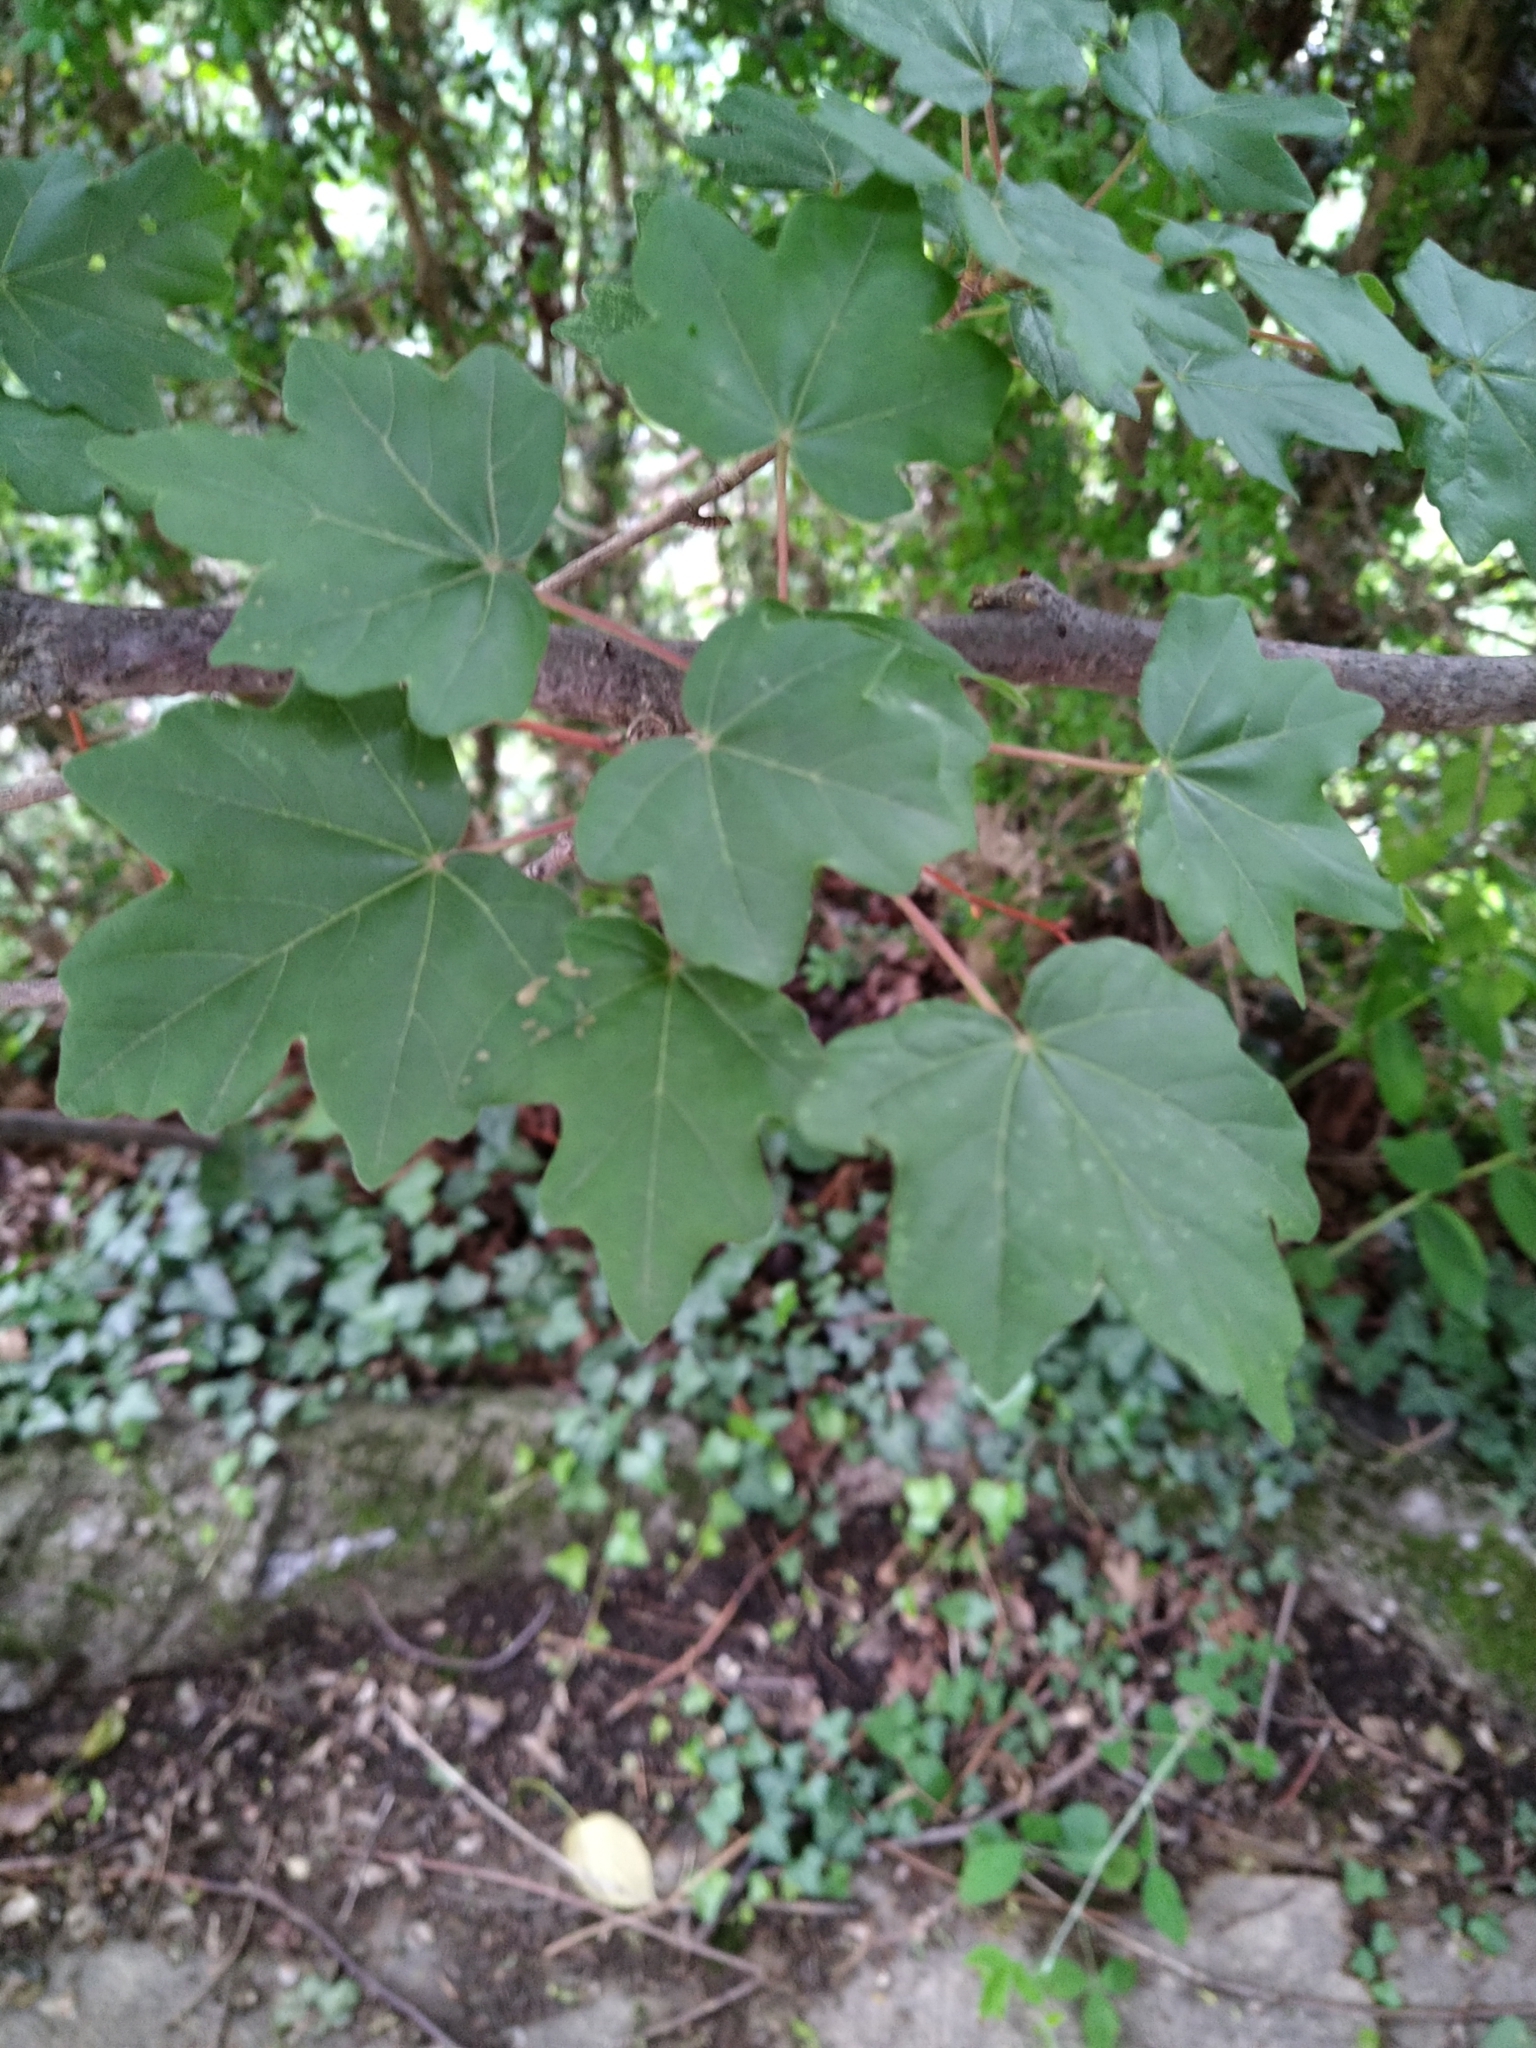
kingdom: Plantae
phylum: Tracheophyta
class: Magnoliopsida
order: Sapindales
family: Sapindaceae
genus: Acer
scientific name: Acer campestre
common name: Field maple
